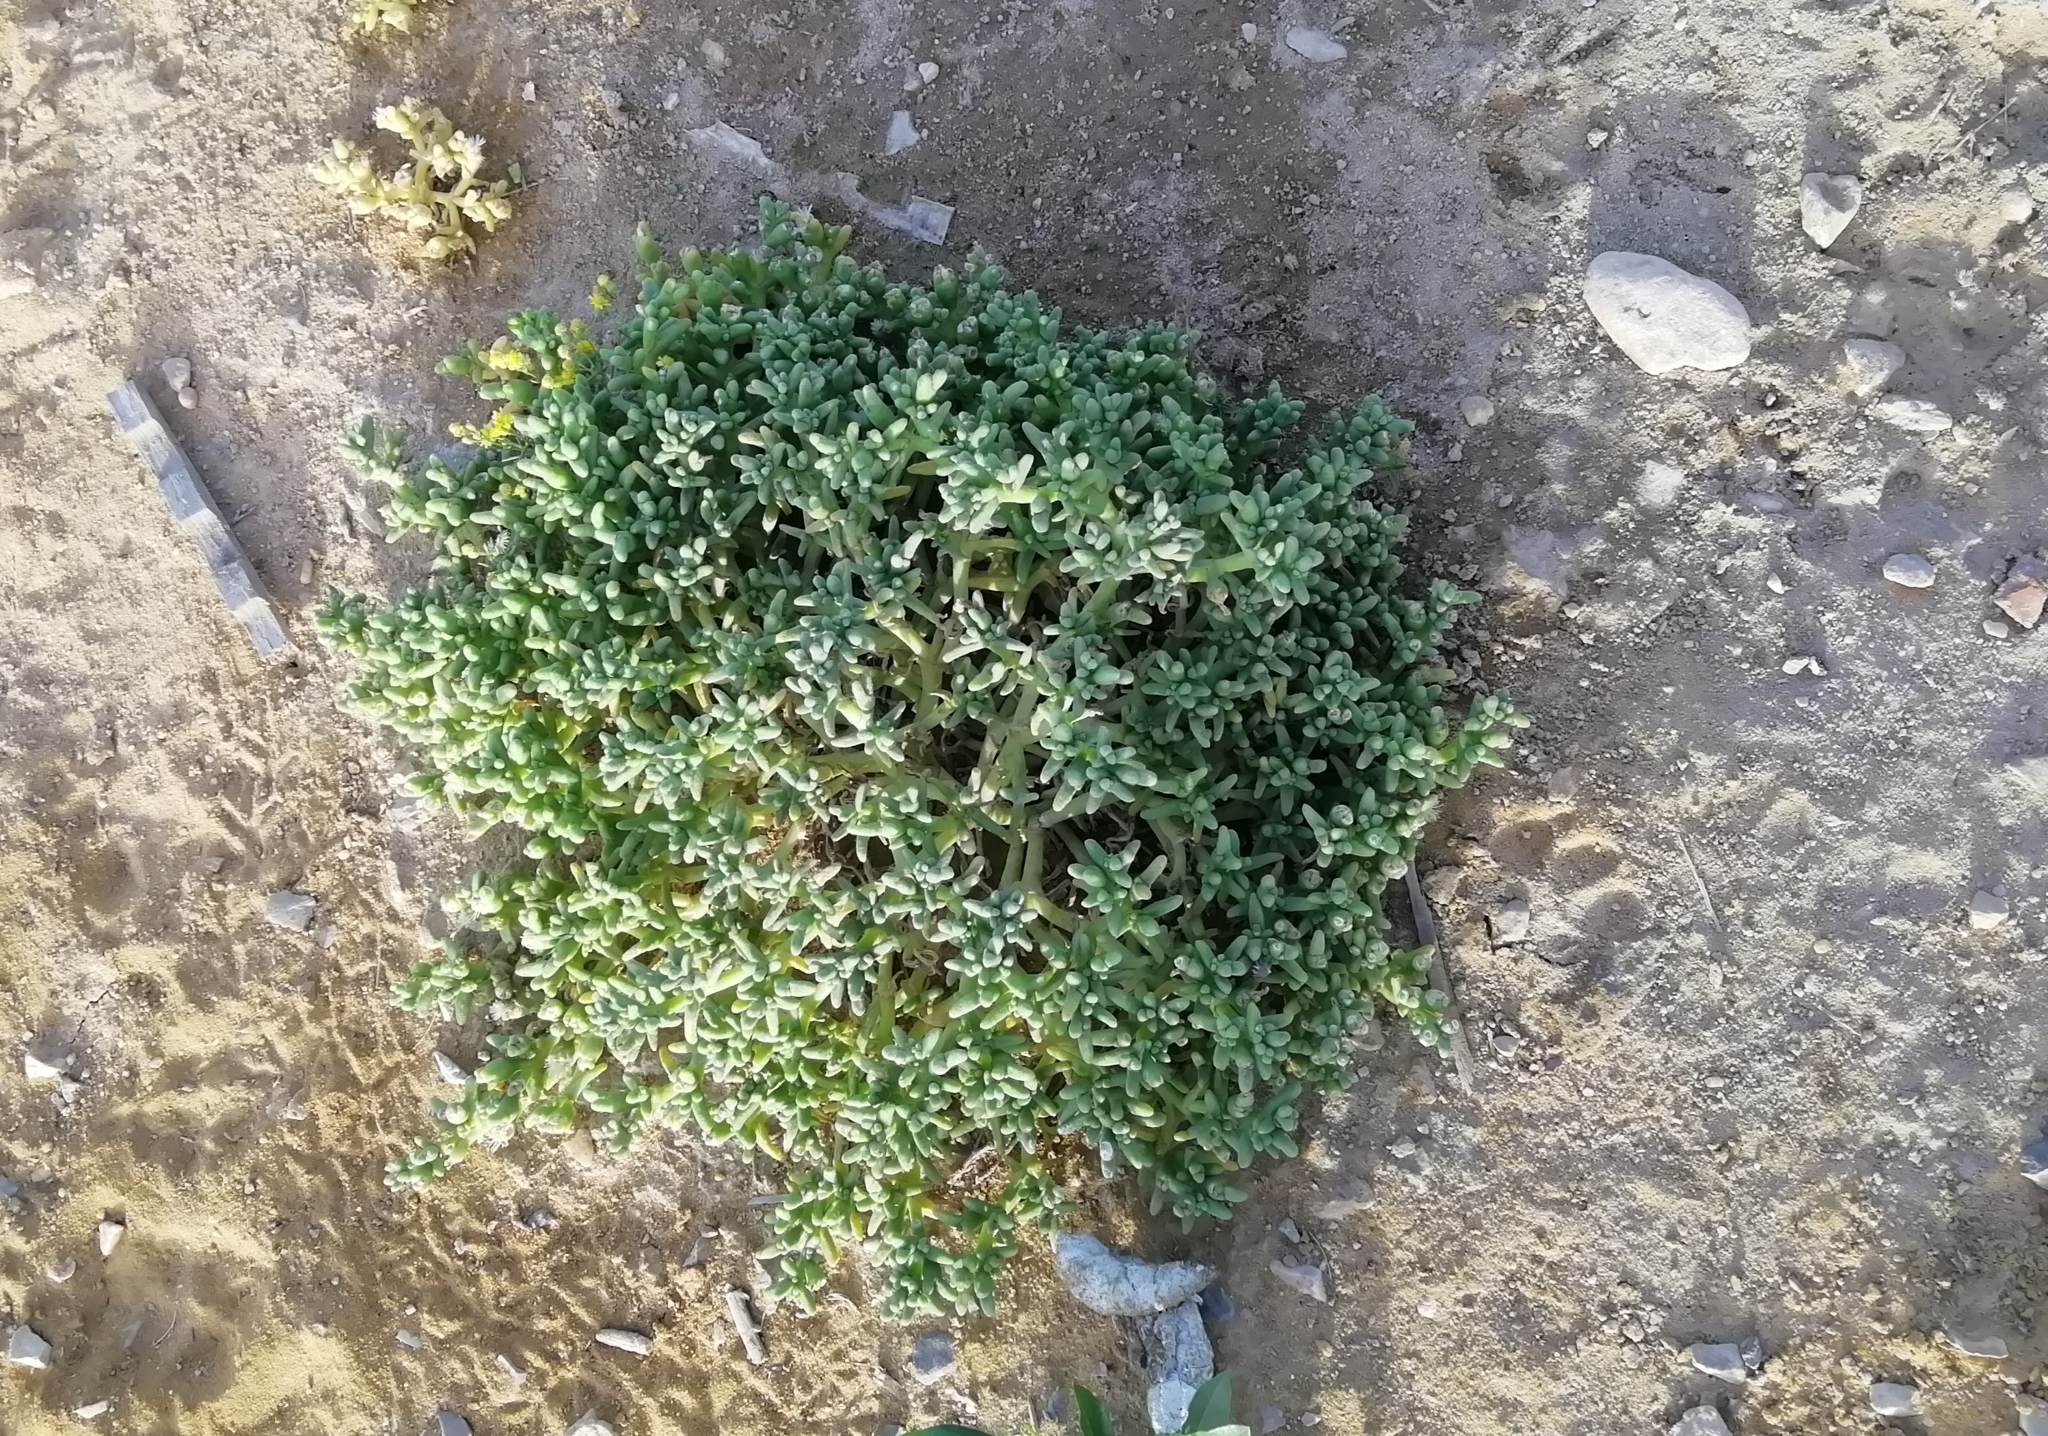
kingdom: Plantae
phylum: Tracheophyta
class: Magnoliopsida
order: Caryophyllales
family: Aizoaceae
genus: Mesembryanthemum
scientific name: Mesembryanthemum cryptanthum
